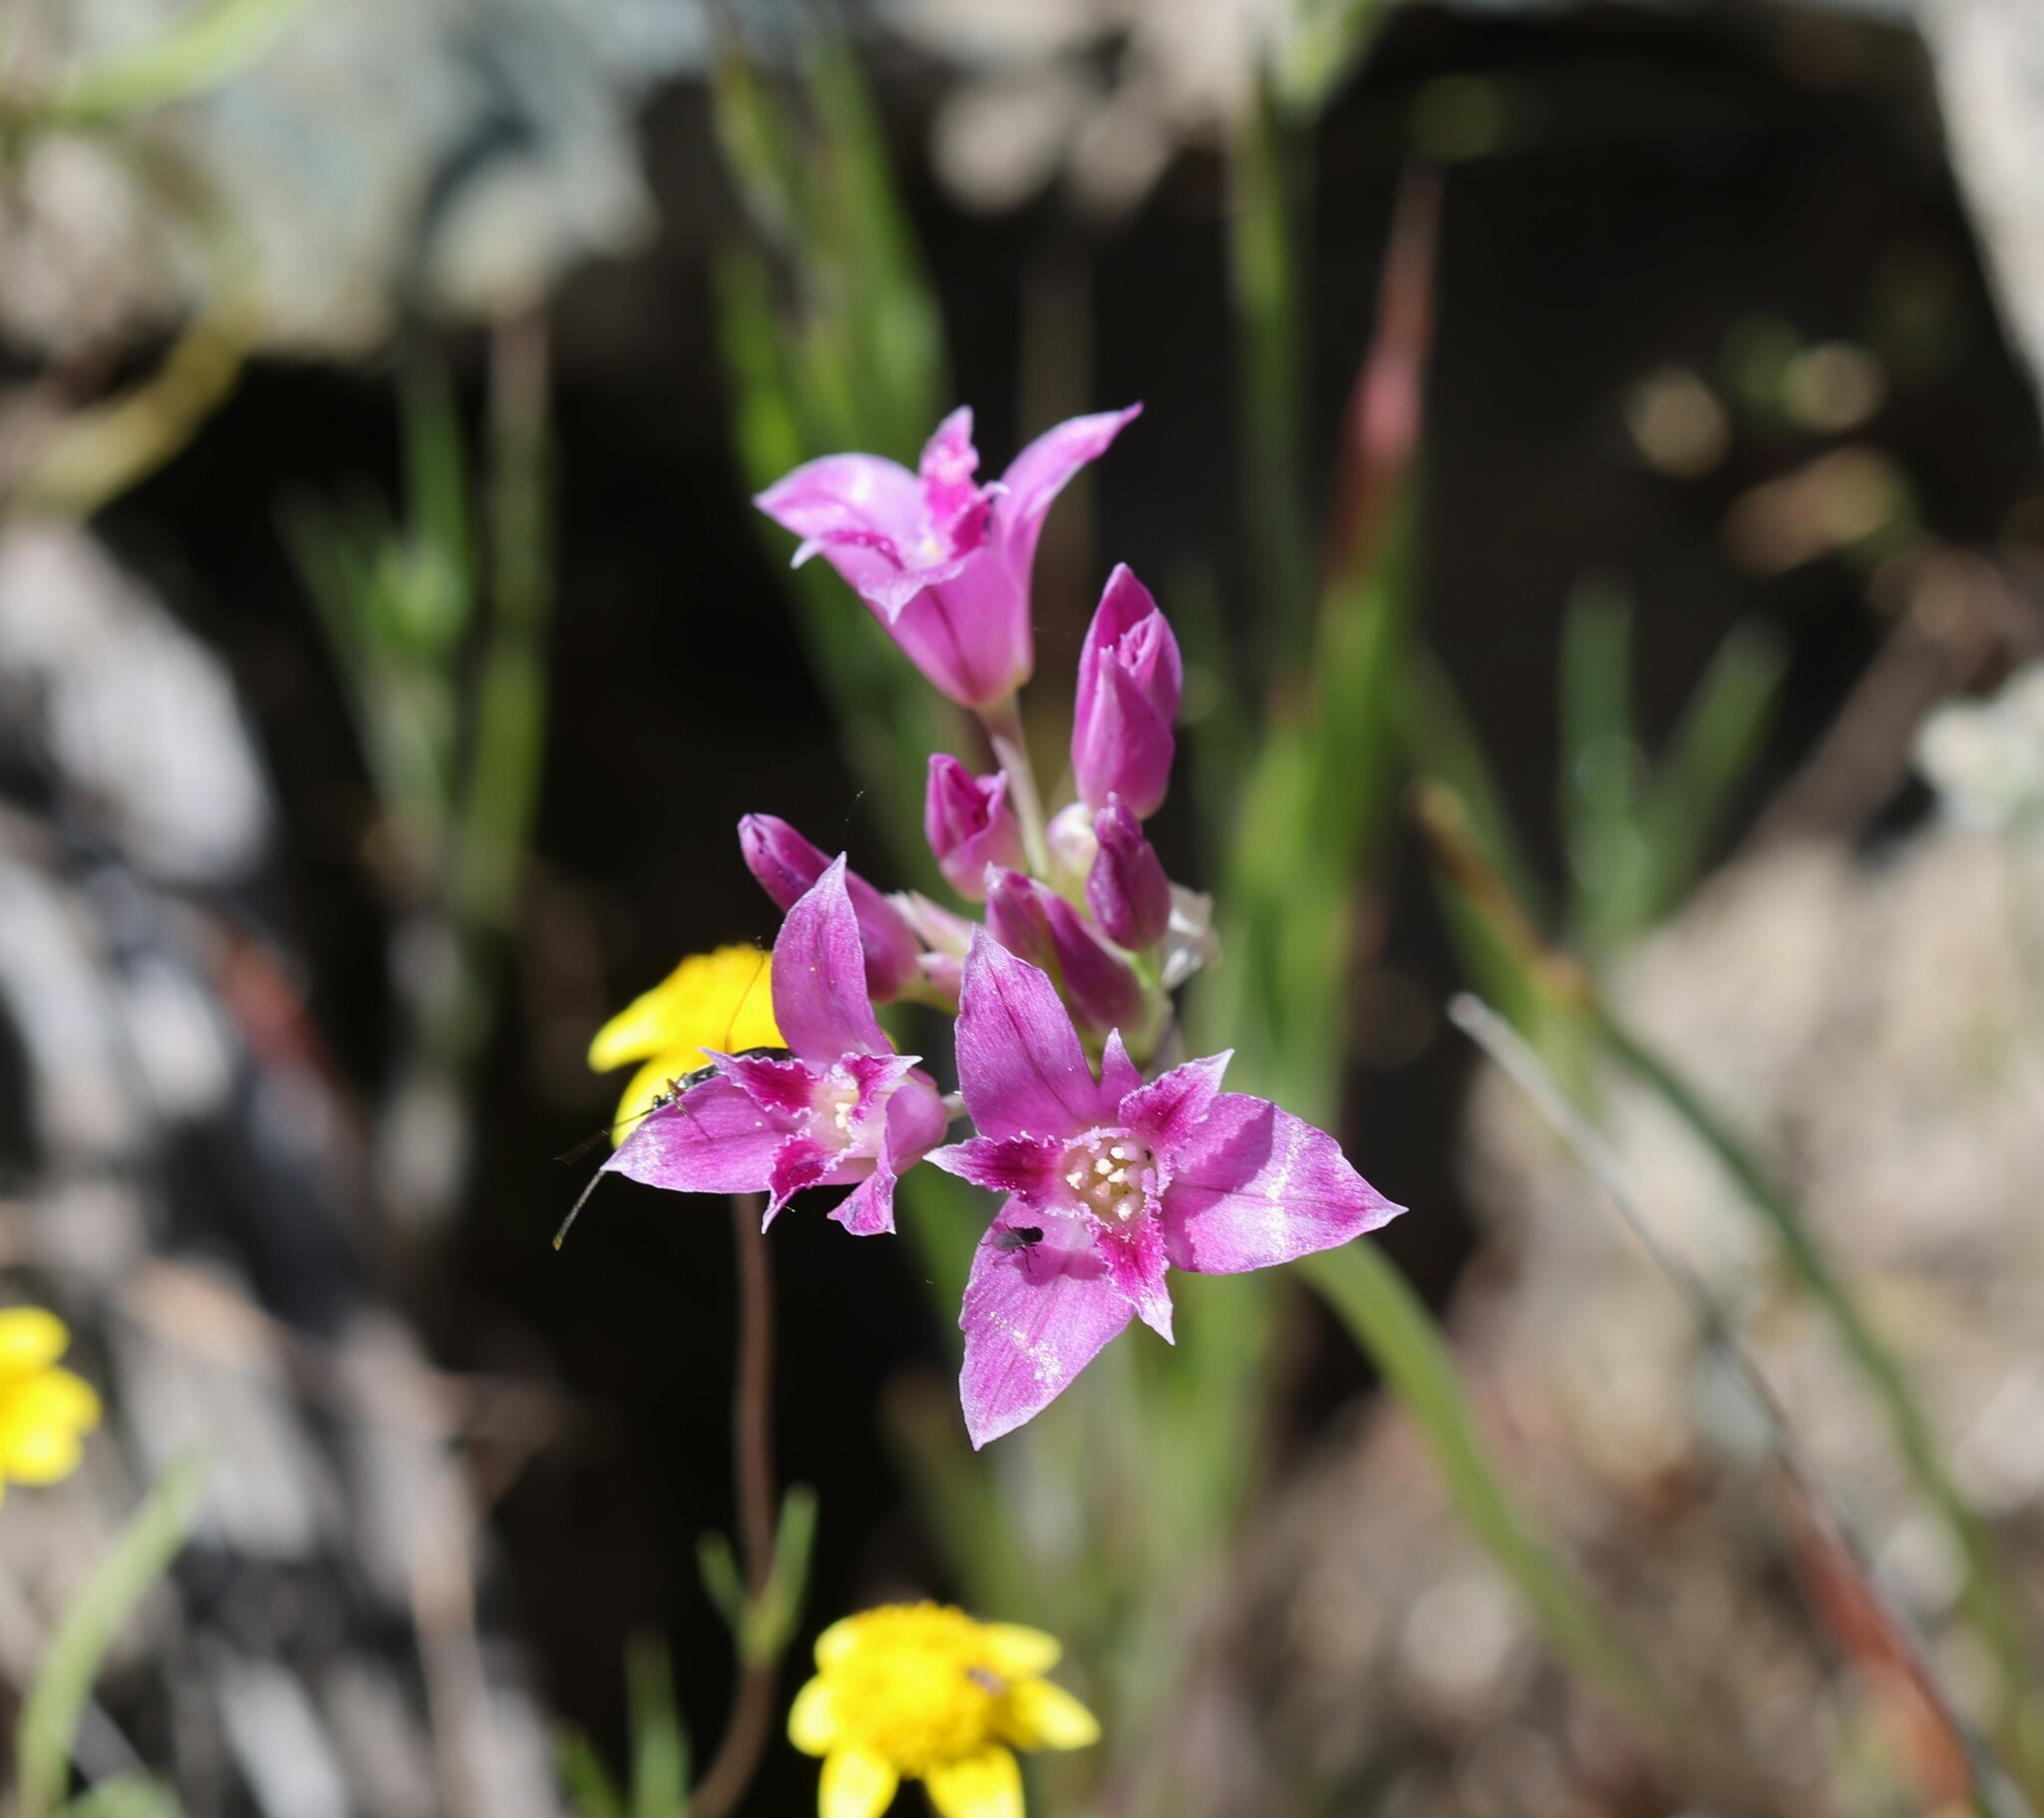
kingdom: Plantae
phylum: Tracheophyta
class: Liliopsida
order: Asparagales
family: Amaryllidaceae
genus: Allium
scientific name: Allium crispum
